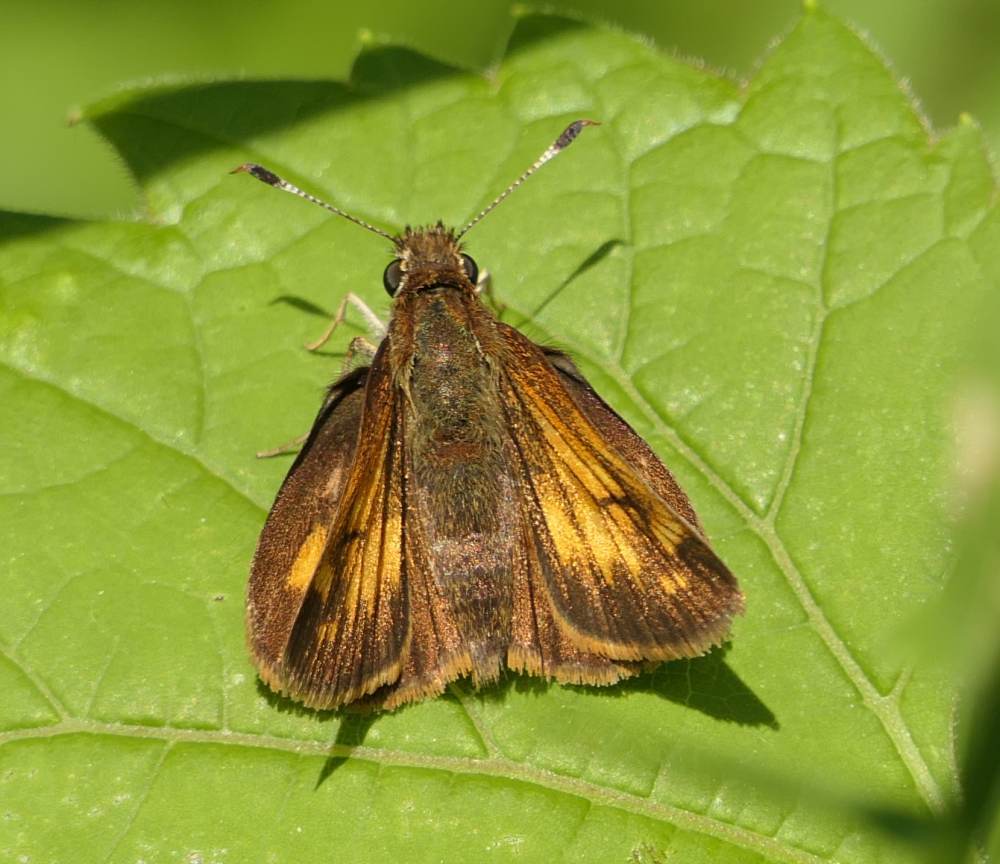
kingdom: Animalia
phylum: Arthropoda
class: Insecta
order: Lepidoptera
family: Hesperiidae
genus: Lon
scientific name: Lon hobomok
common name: Hobomok skipper
